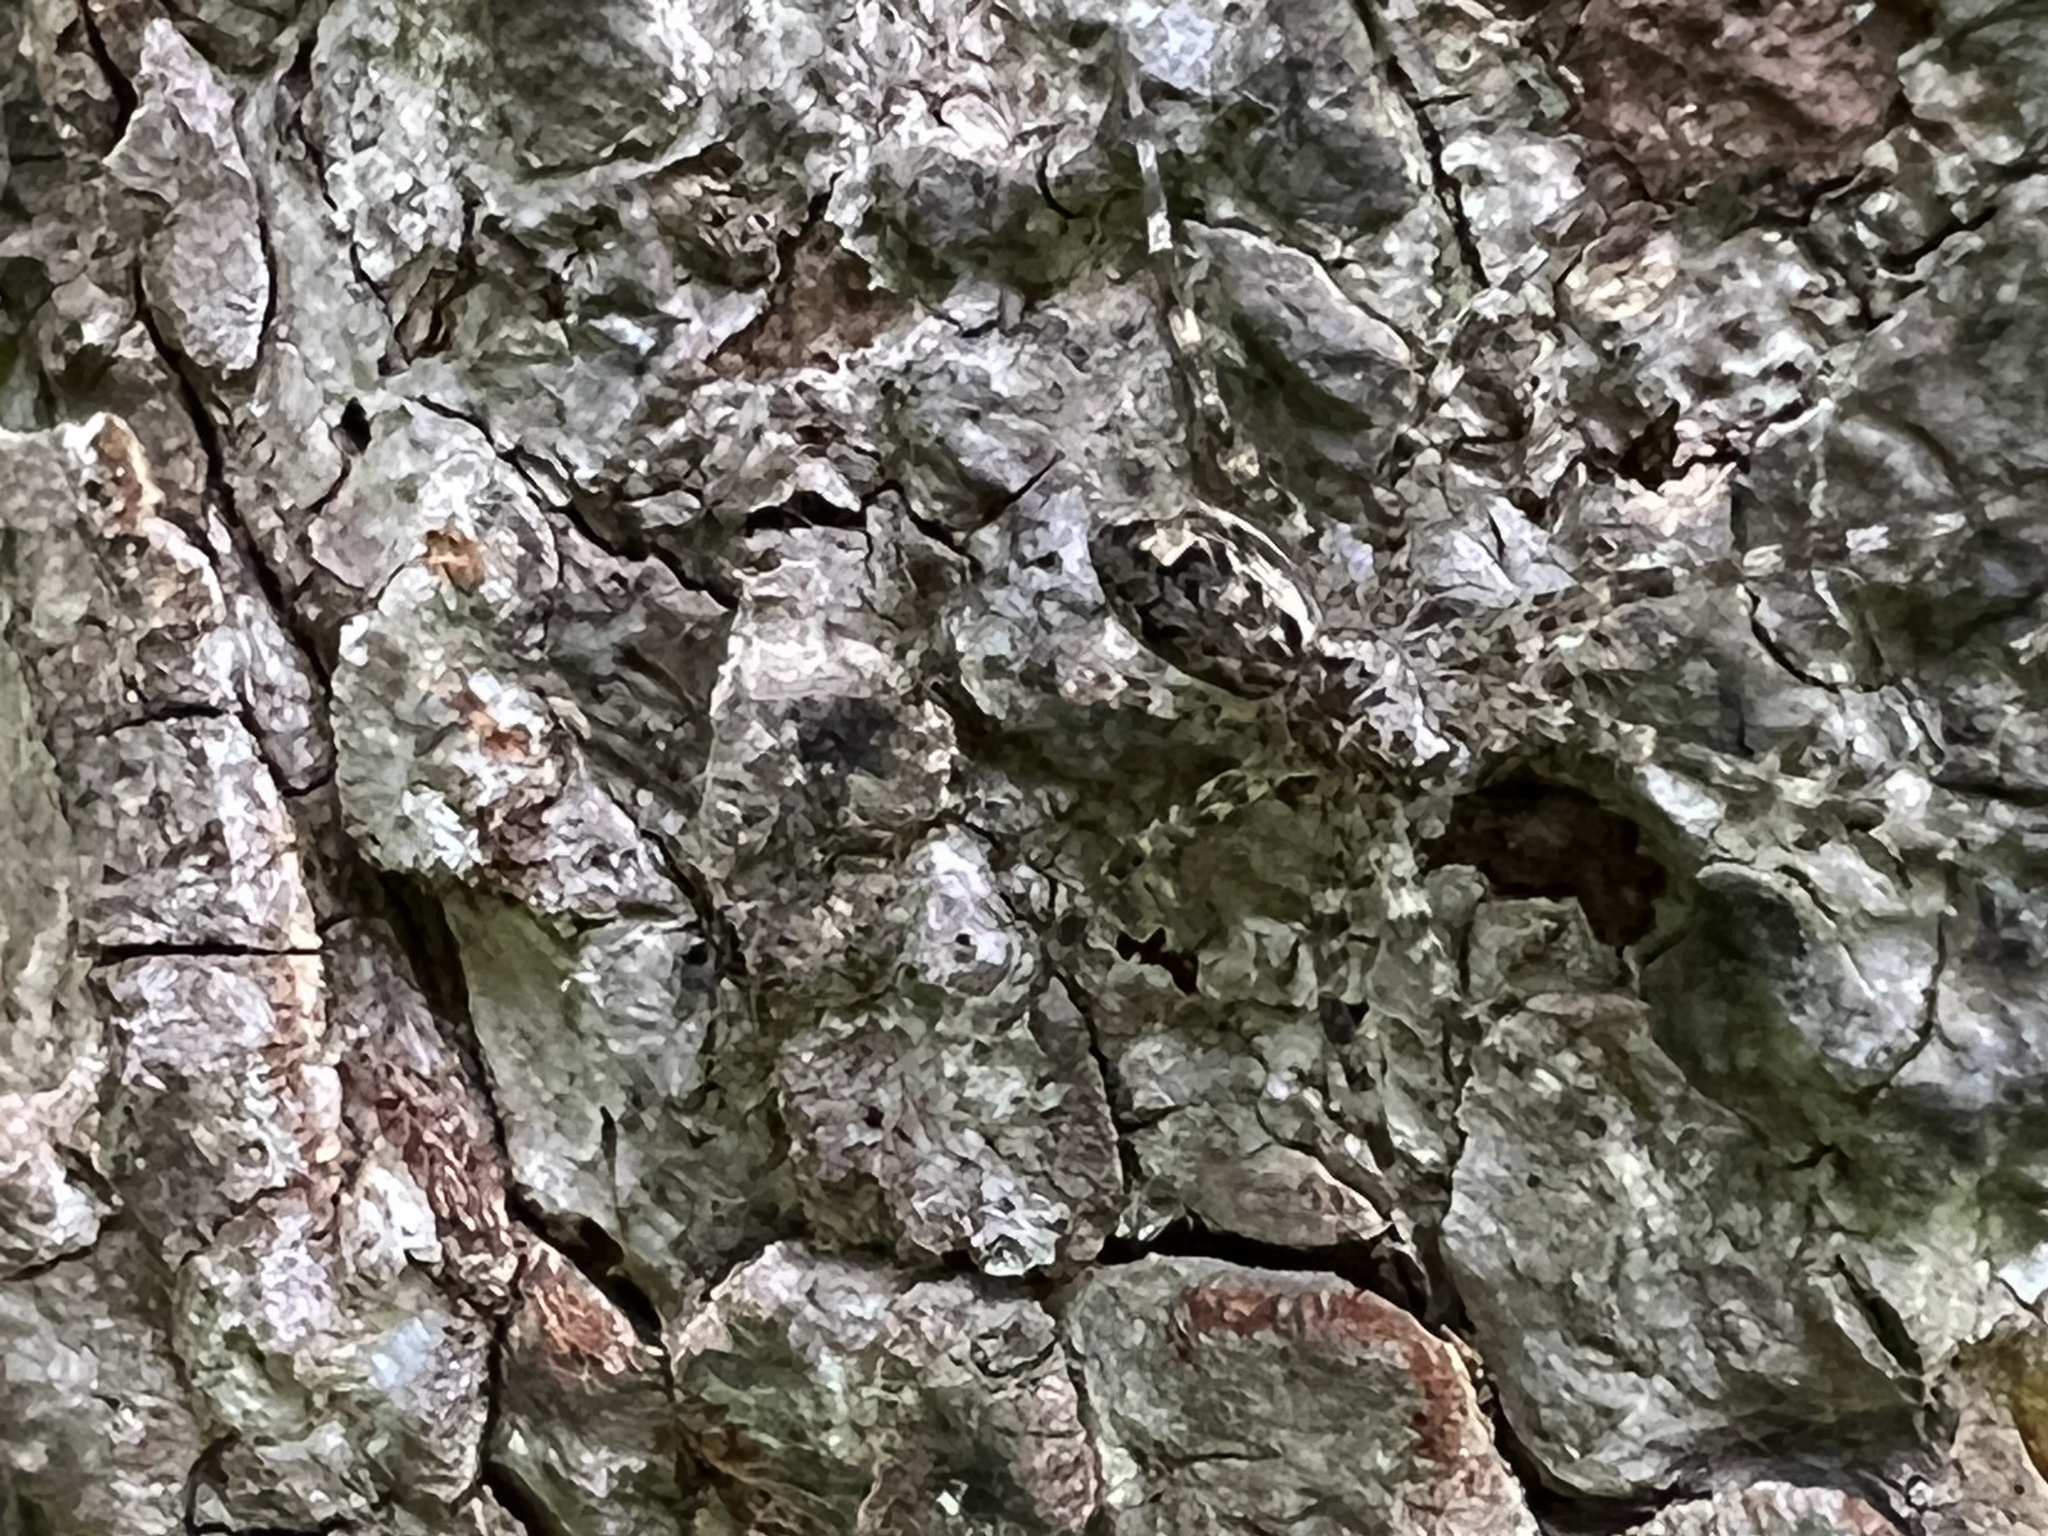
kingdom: Animalia
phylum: Arthropoda
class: Arachnida
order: Araneae
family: Pisauridae
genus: Dolomedes
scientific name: Dolomedes tenebrosus
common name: Dark fishing spider
